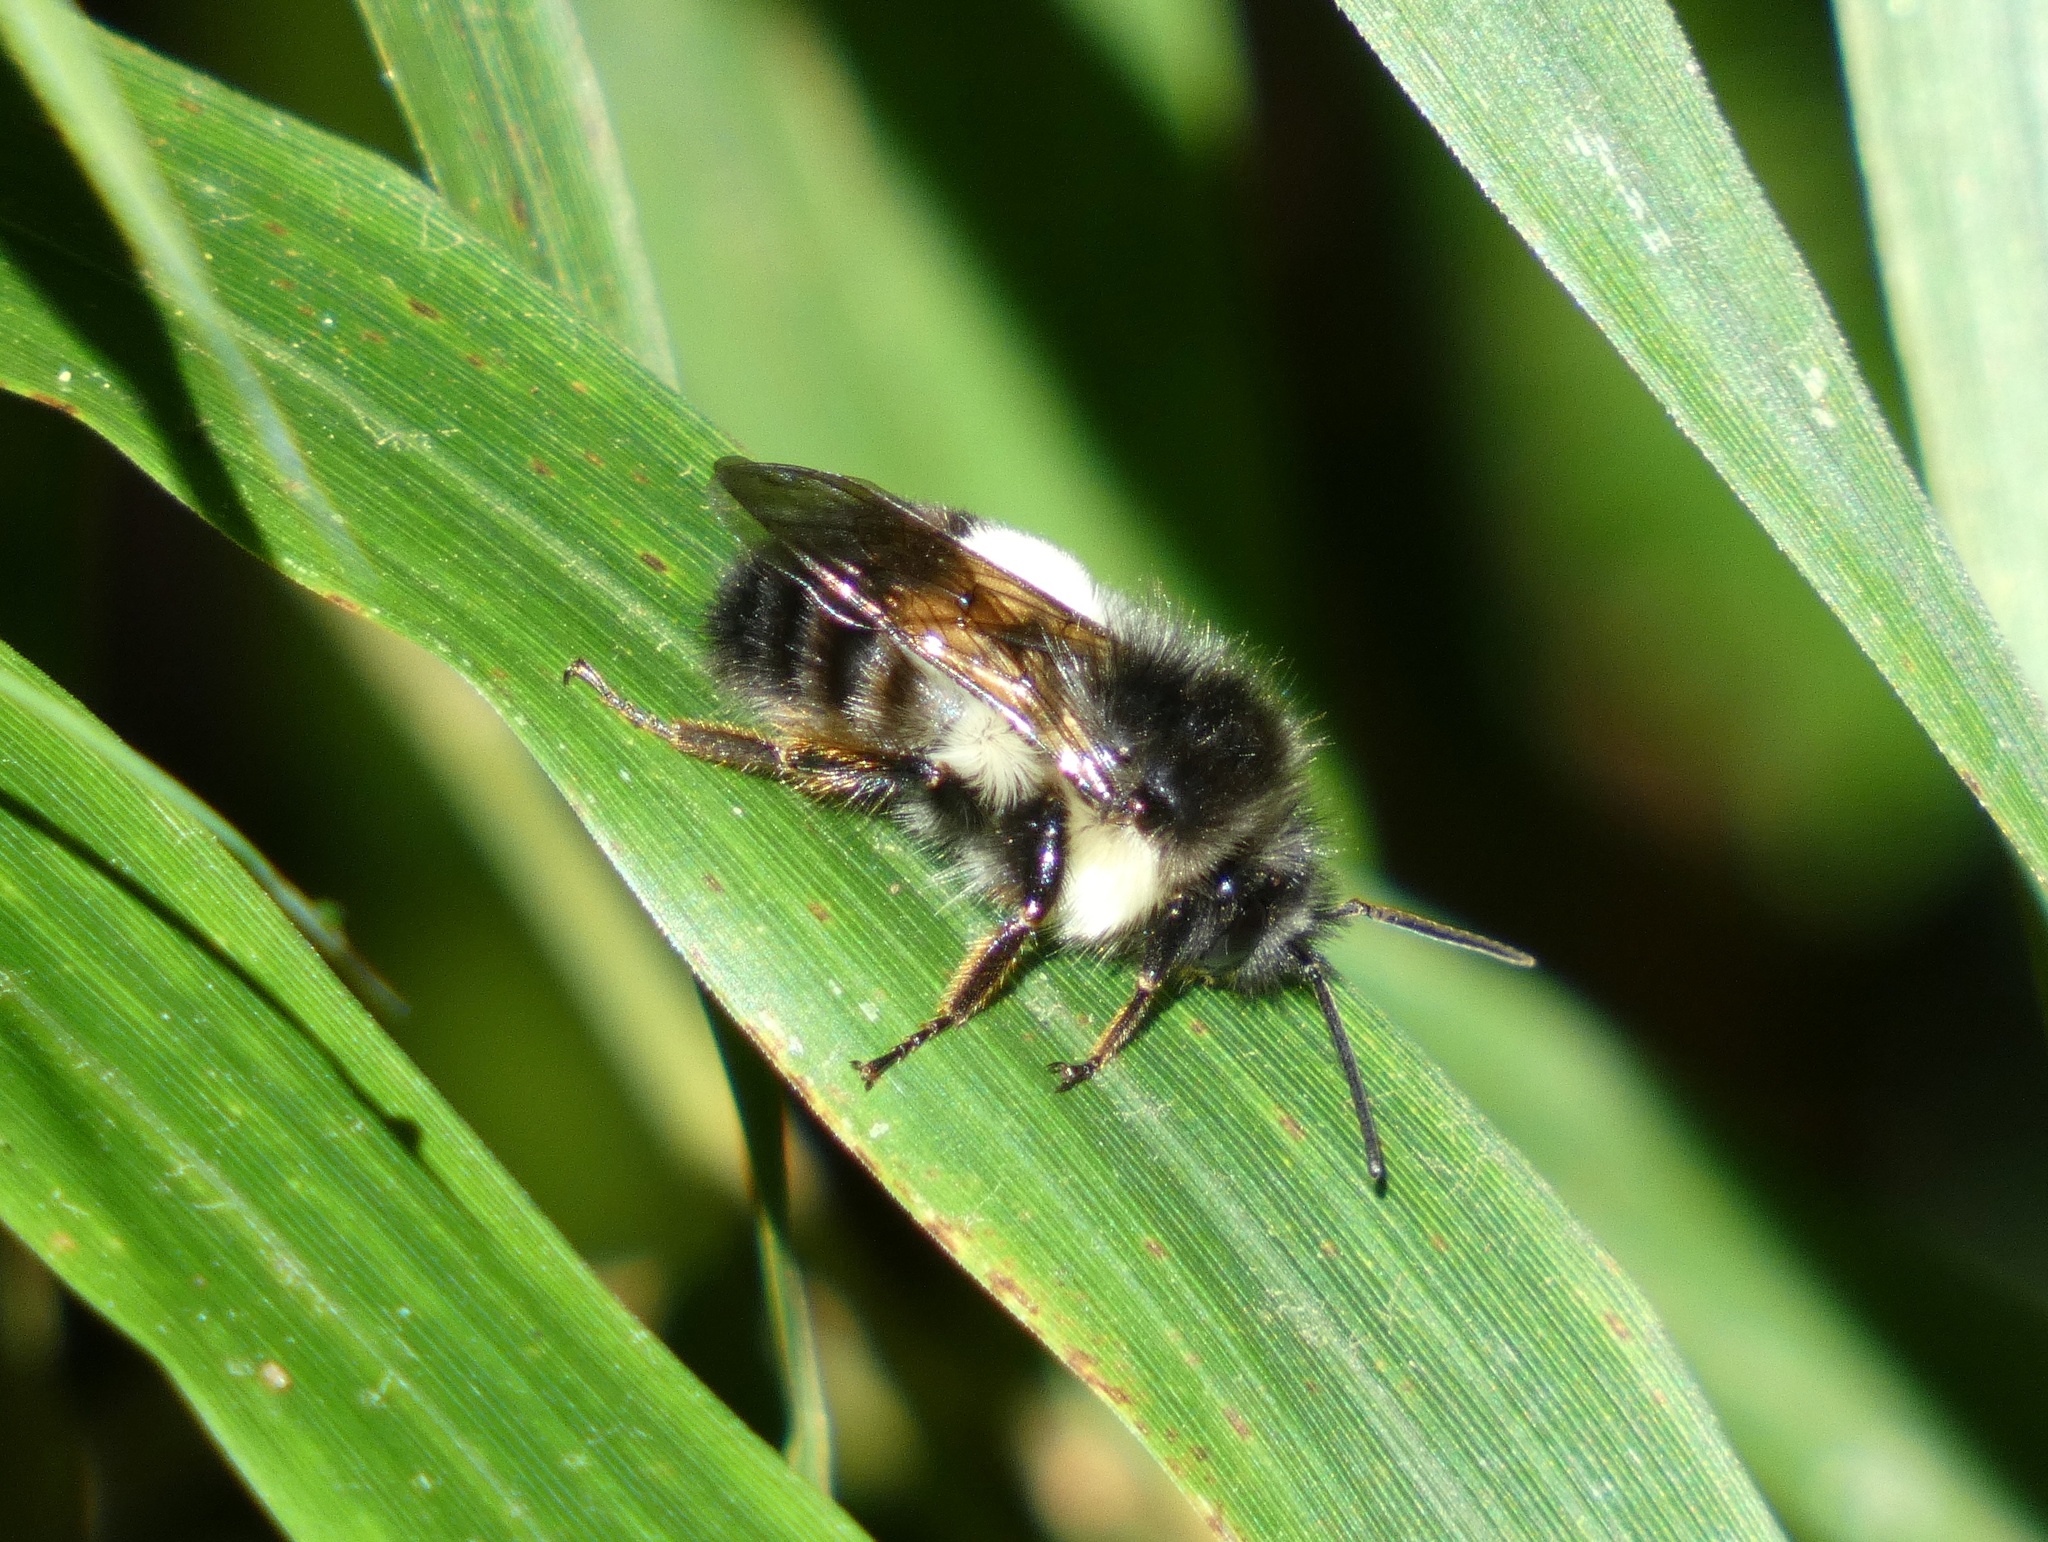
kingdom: Animalia
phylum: Arthropoda
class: Insecta
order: Hymenoptera
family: Apidae
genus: Bombus
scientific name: Bombus ephippiatus
